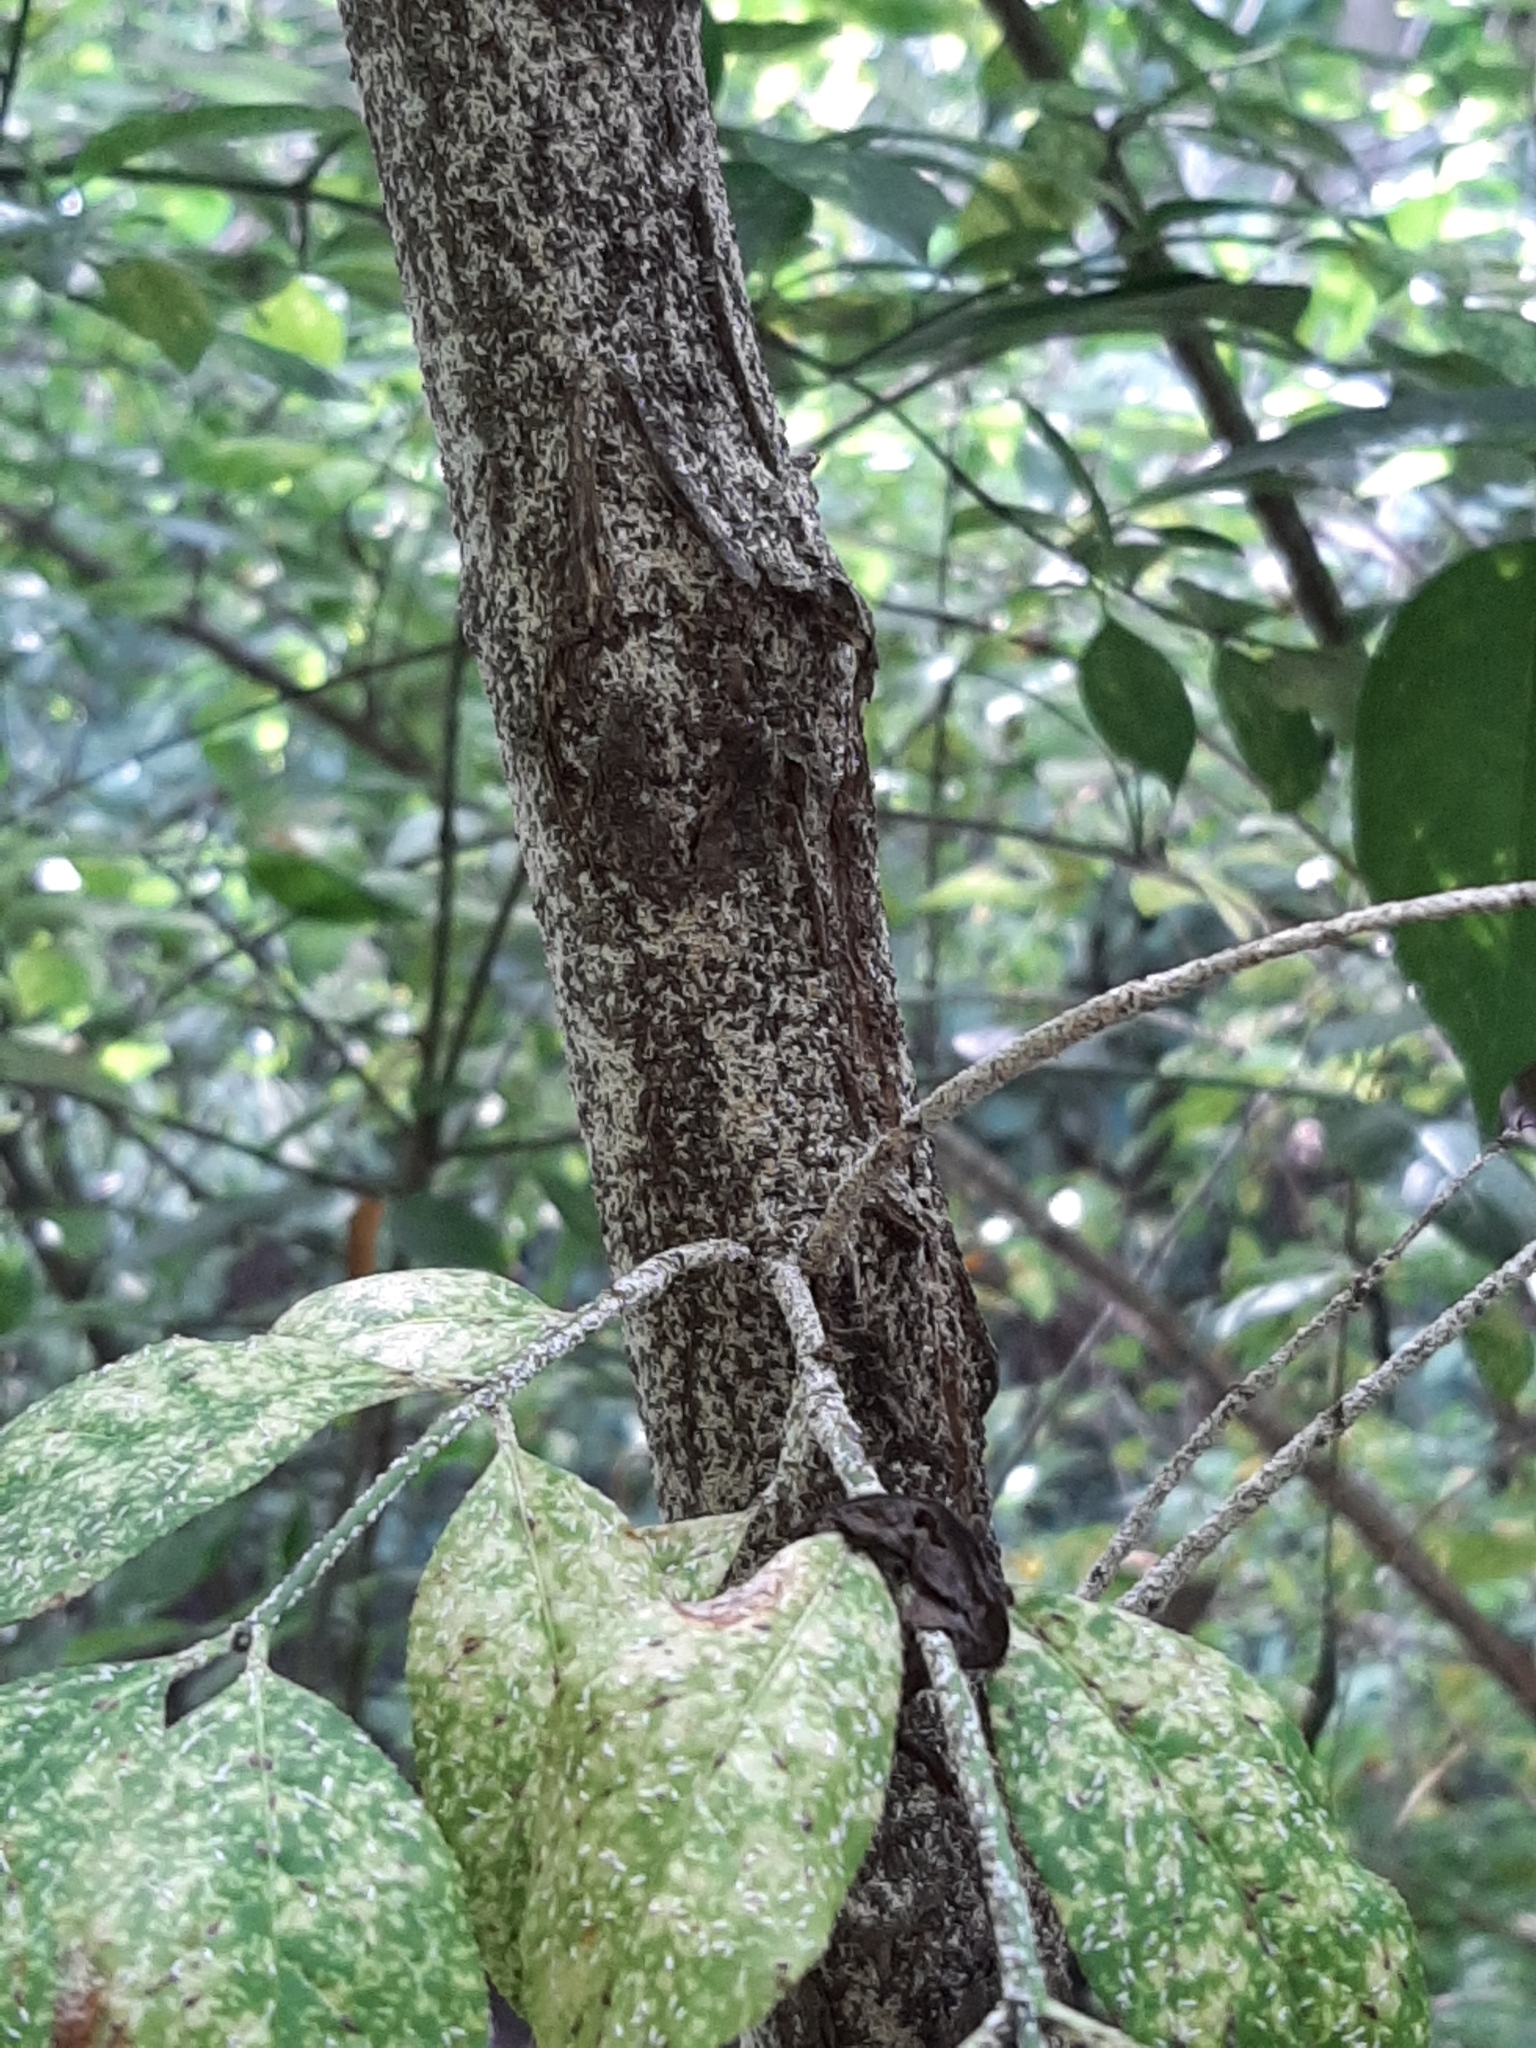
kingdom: Animalia
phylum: Arthropoda
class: Insecta
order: Hemiptera
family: Diaspididae
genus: Unaspis
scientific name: Unaspis euonymi
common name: Euonymus scale
